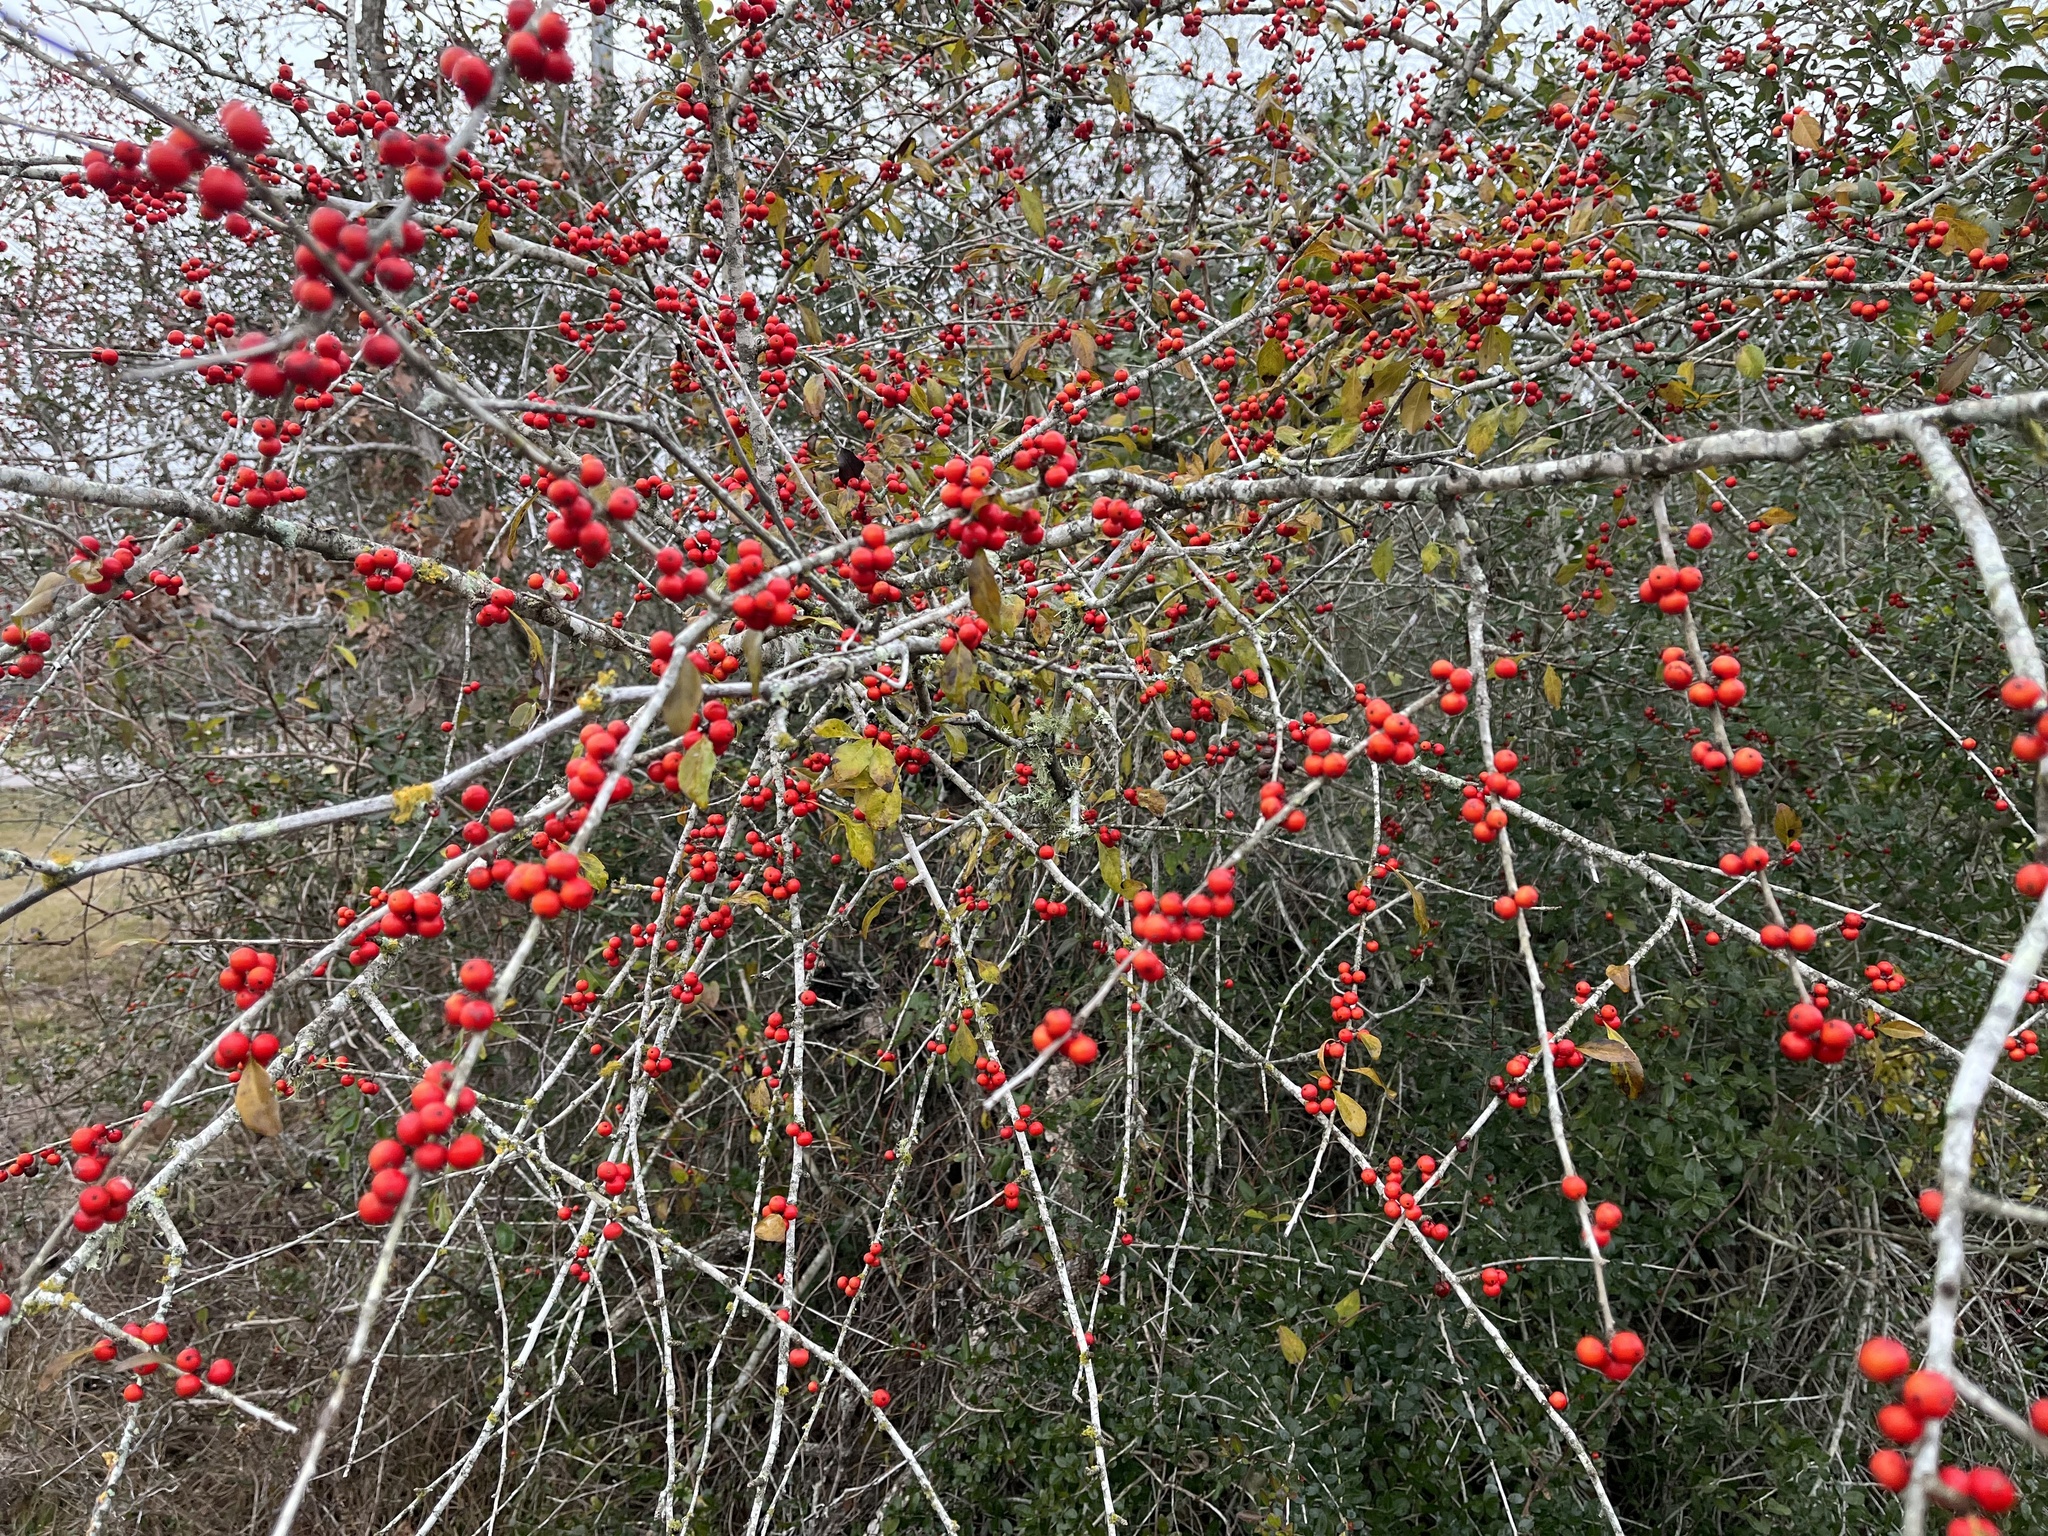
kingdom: Plantae
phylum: Tracheophyta
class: Magnoliopsida
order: Aquifoliales
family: Aquifoliaceae
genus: Ilex
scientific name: Ilex decidua
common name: Possum-haw
